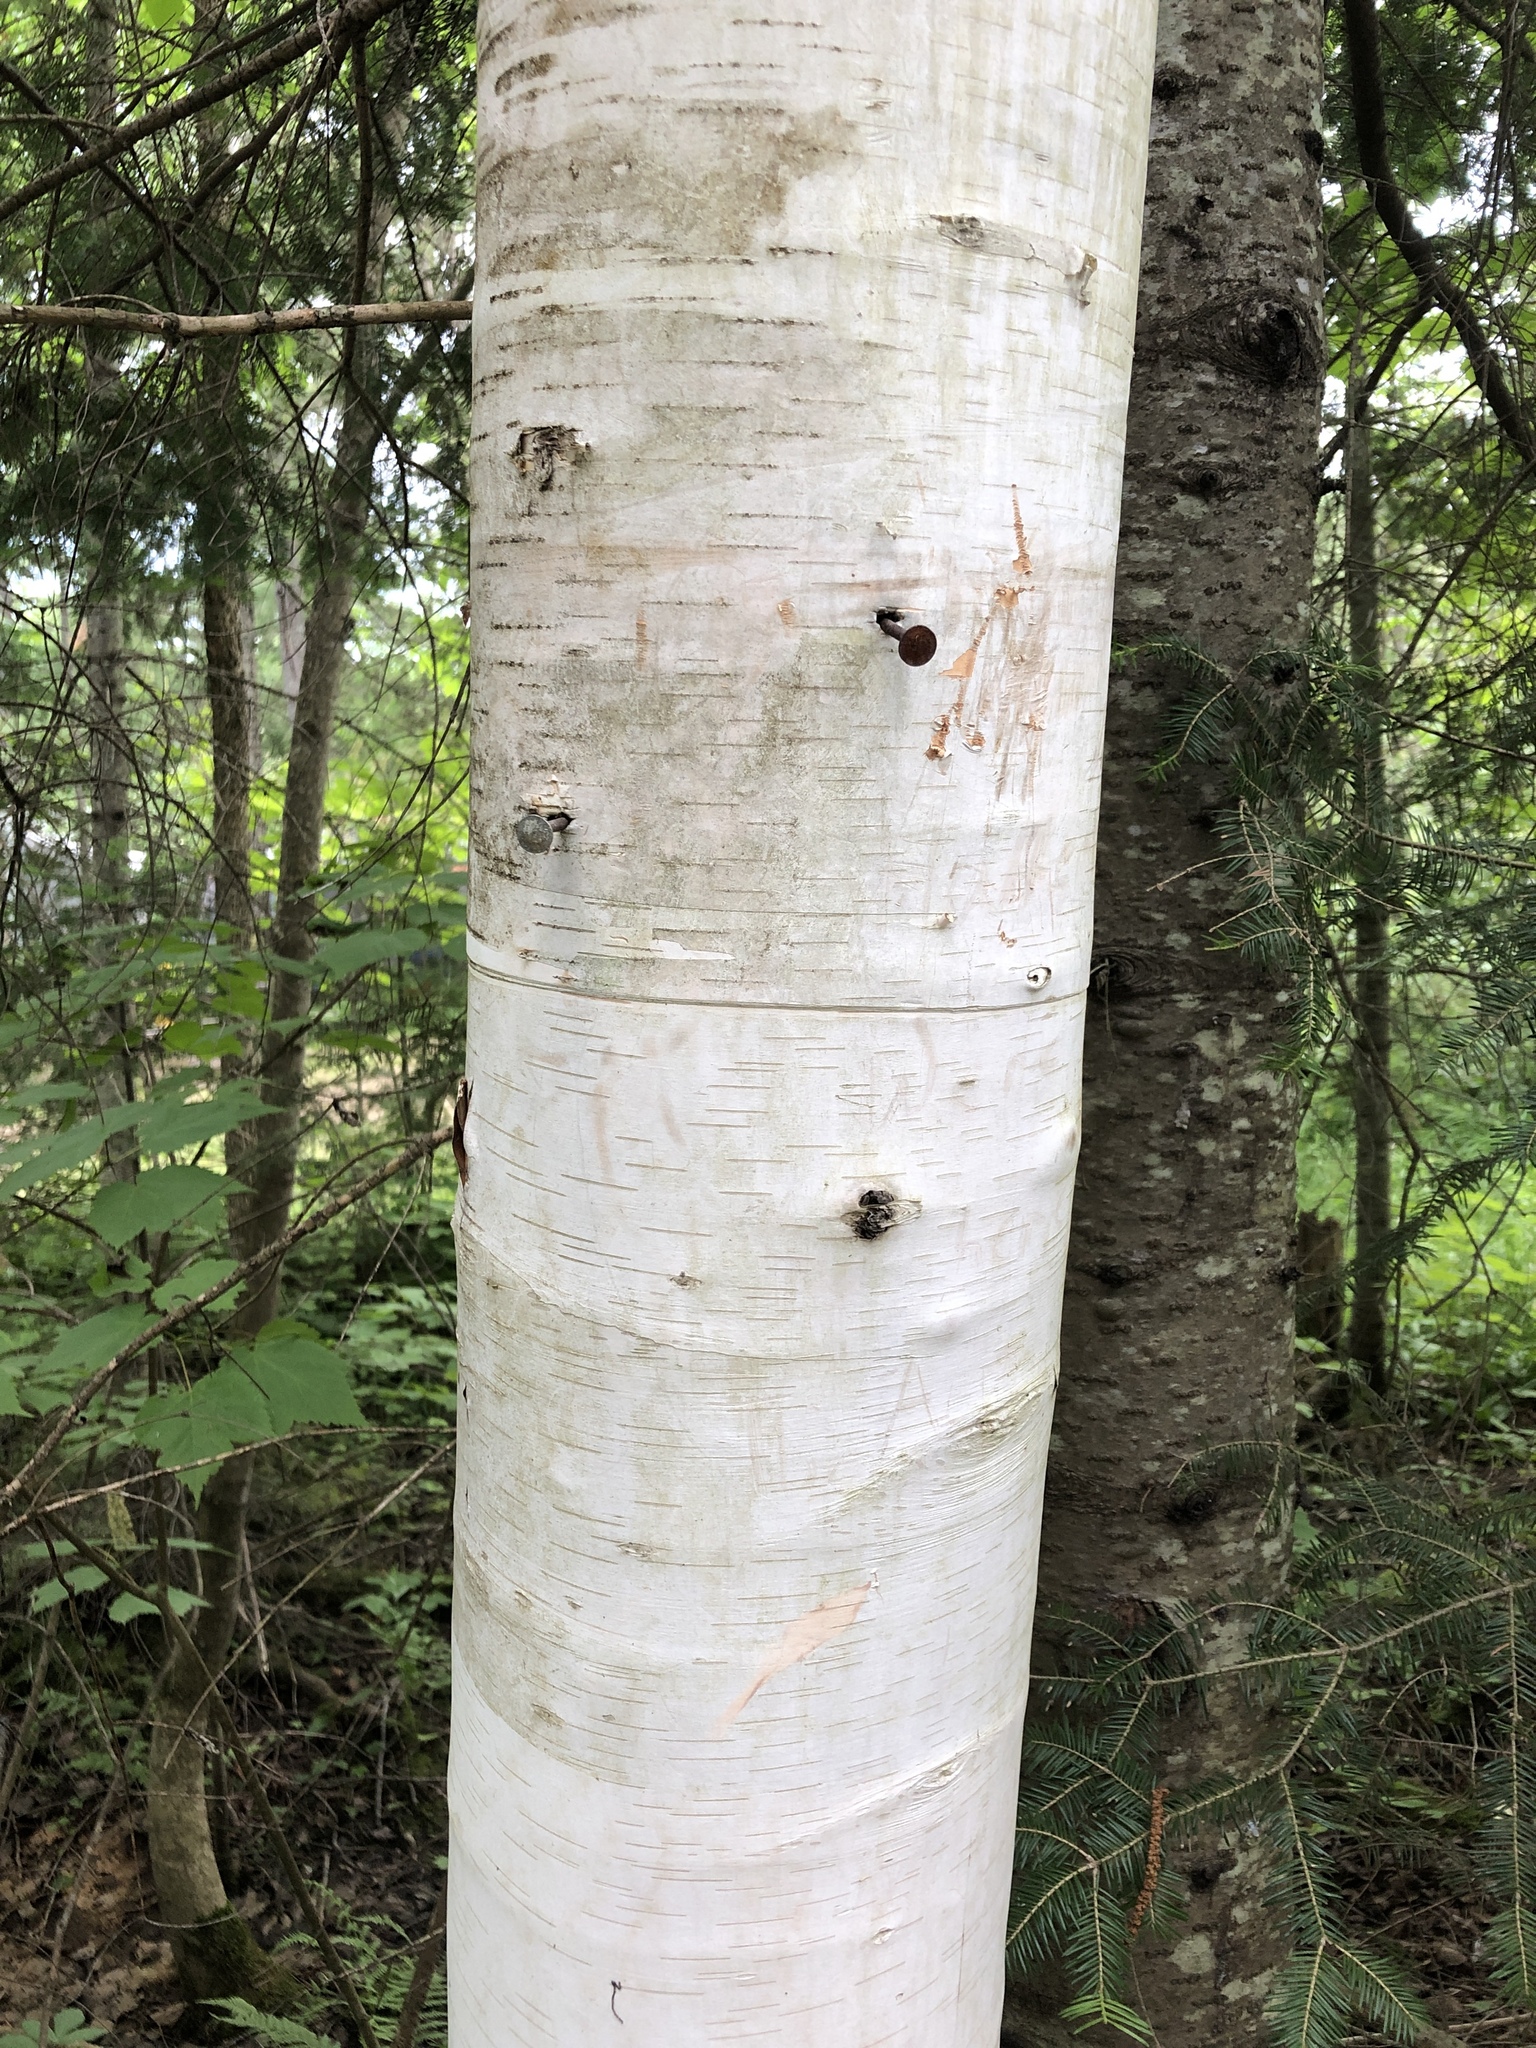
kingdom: Plantae
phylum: Tracheophyta
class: Magnoliopsida
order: Fagales
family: Betulaceae
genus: Betula
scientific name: Betula papyrifera
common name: Paper birch
